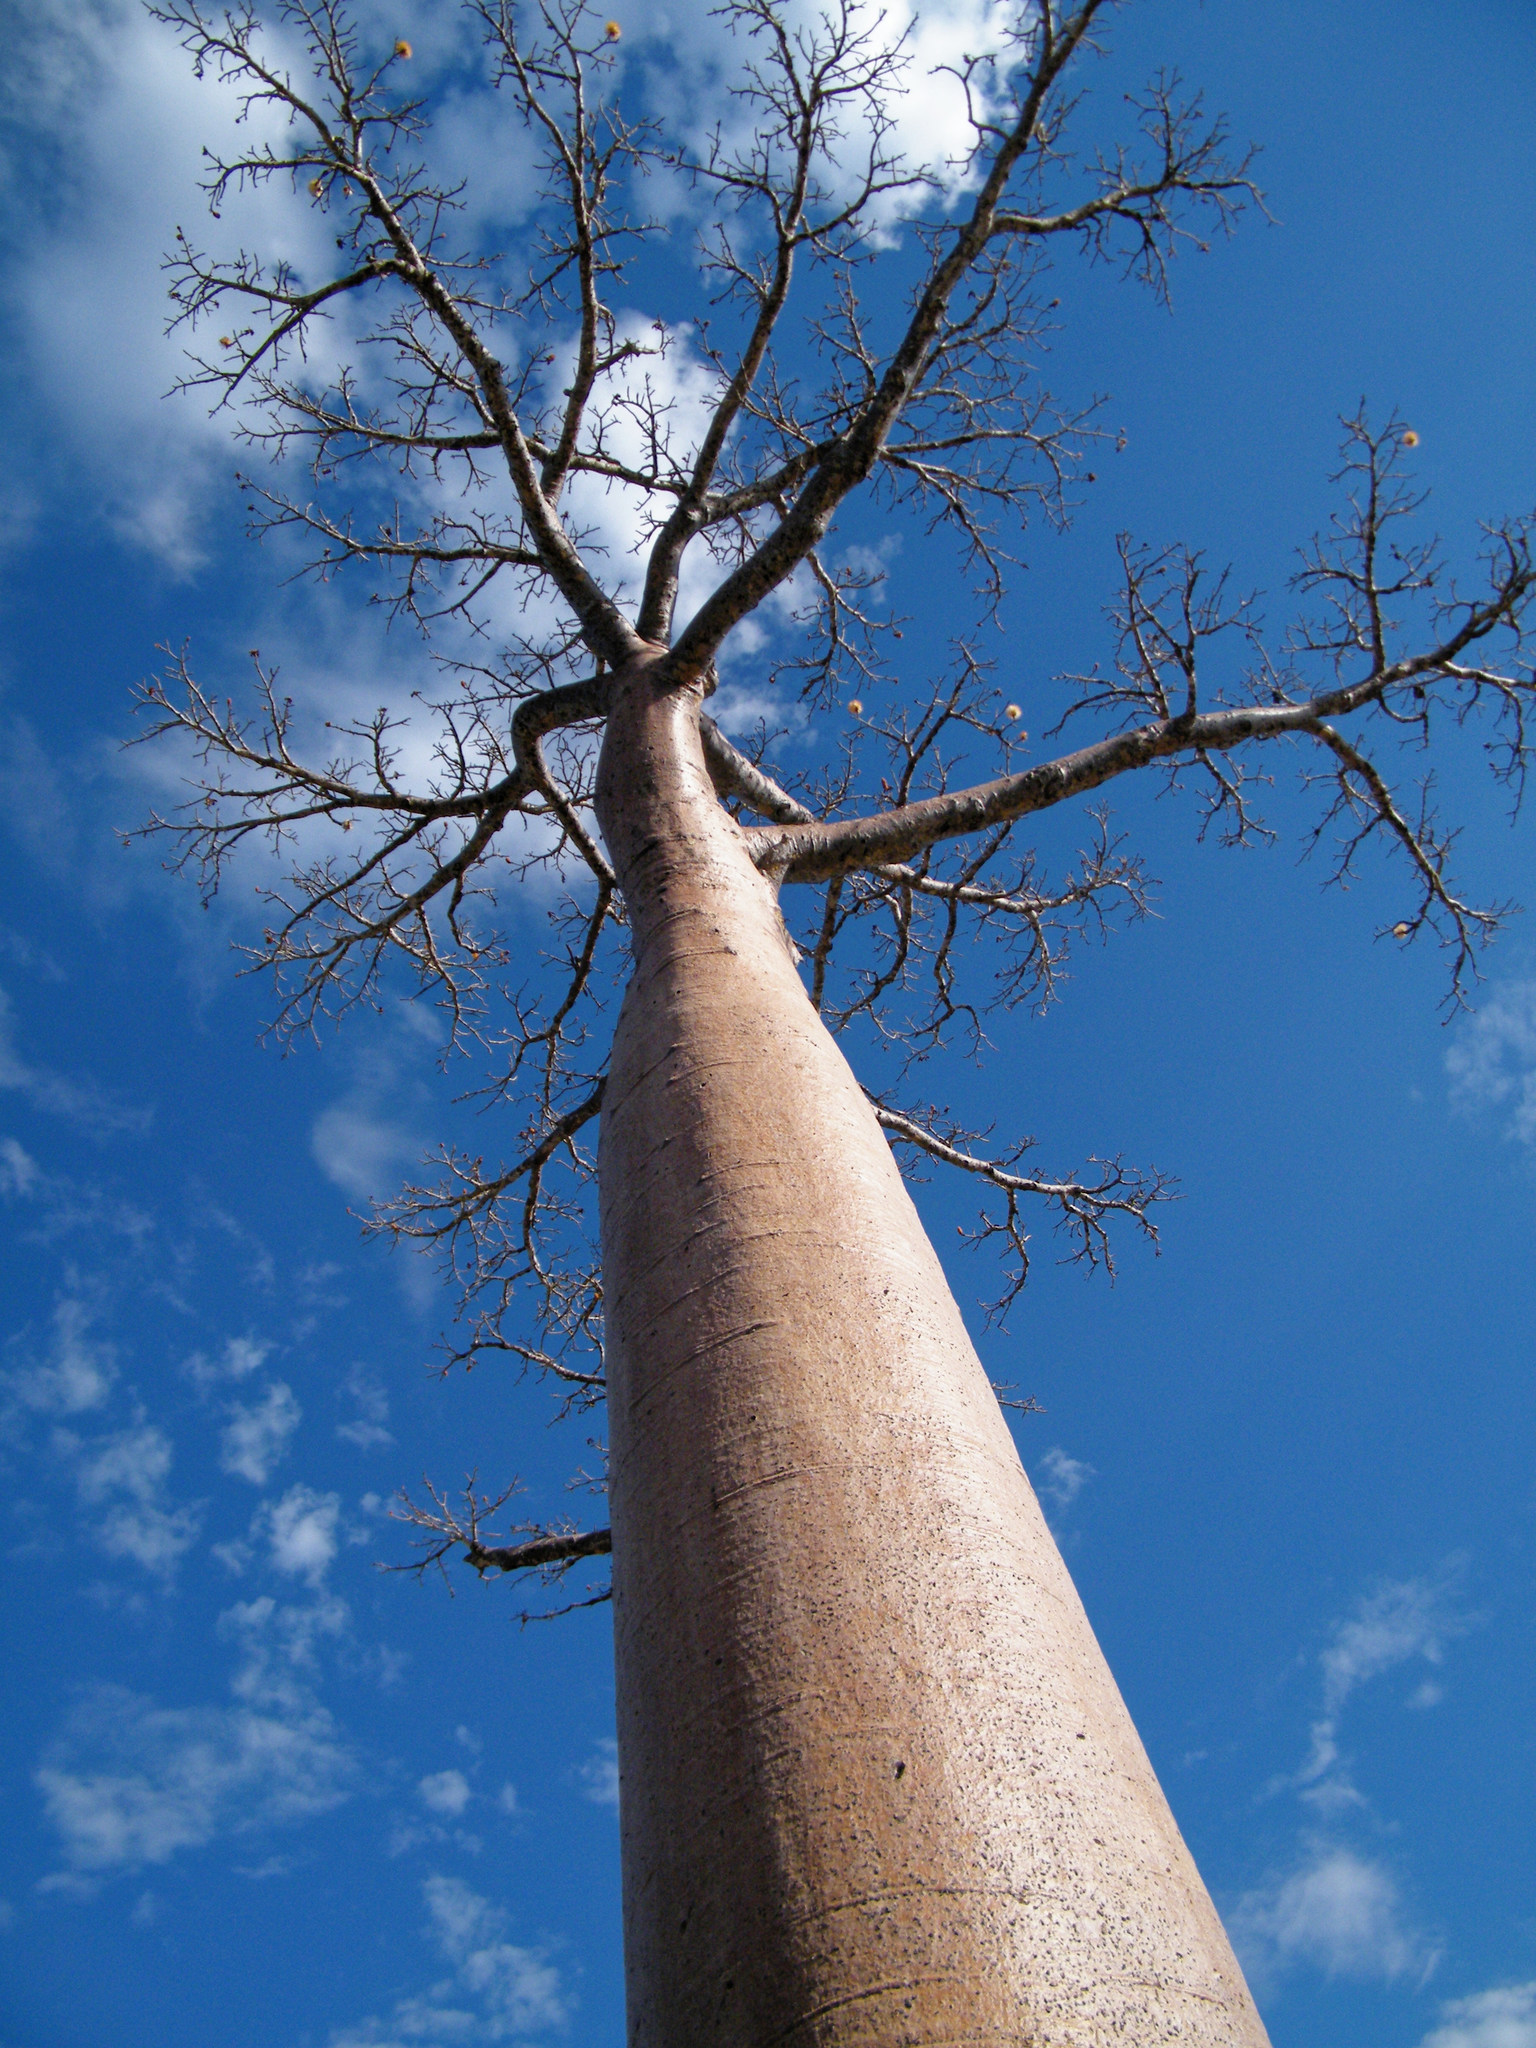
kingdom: Plantae
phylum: Tracheophyta
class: Magnoliopsida
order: Malvales
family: Malvaceae
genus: Adansonia
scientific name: Adansonia grandidieri
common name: Grandidier's baobab
